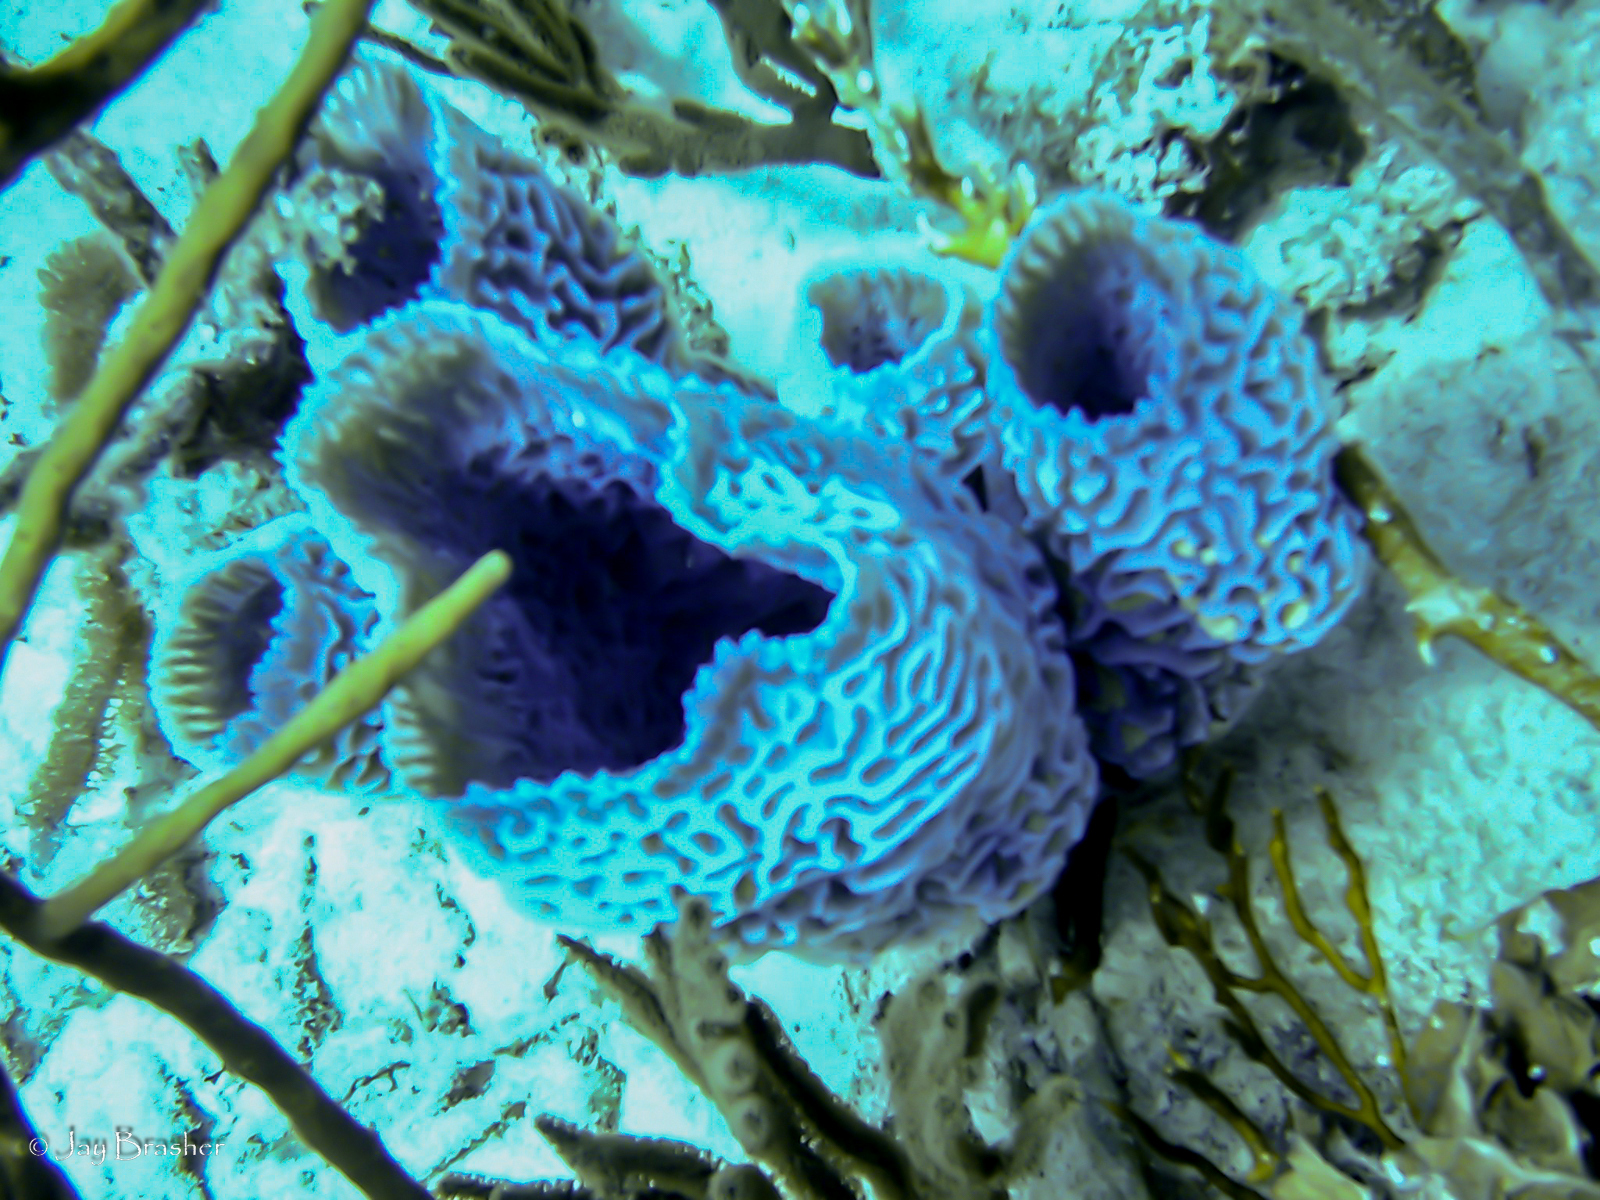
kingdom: Animalia
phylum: Porifera
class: Demospongiae
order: Haplosclerida
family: Callyspongiidae
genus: Callyspongia
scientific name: Callyspongia plicifera
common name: Azure vase sponge
